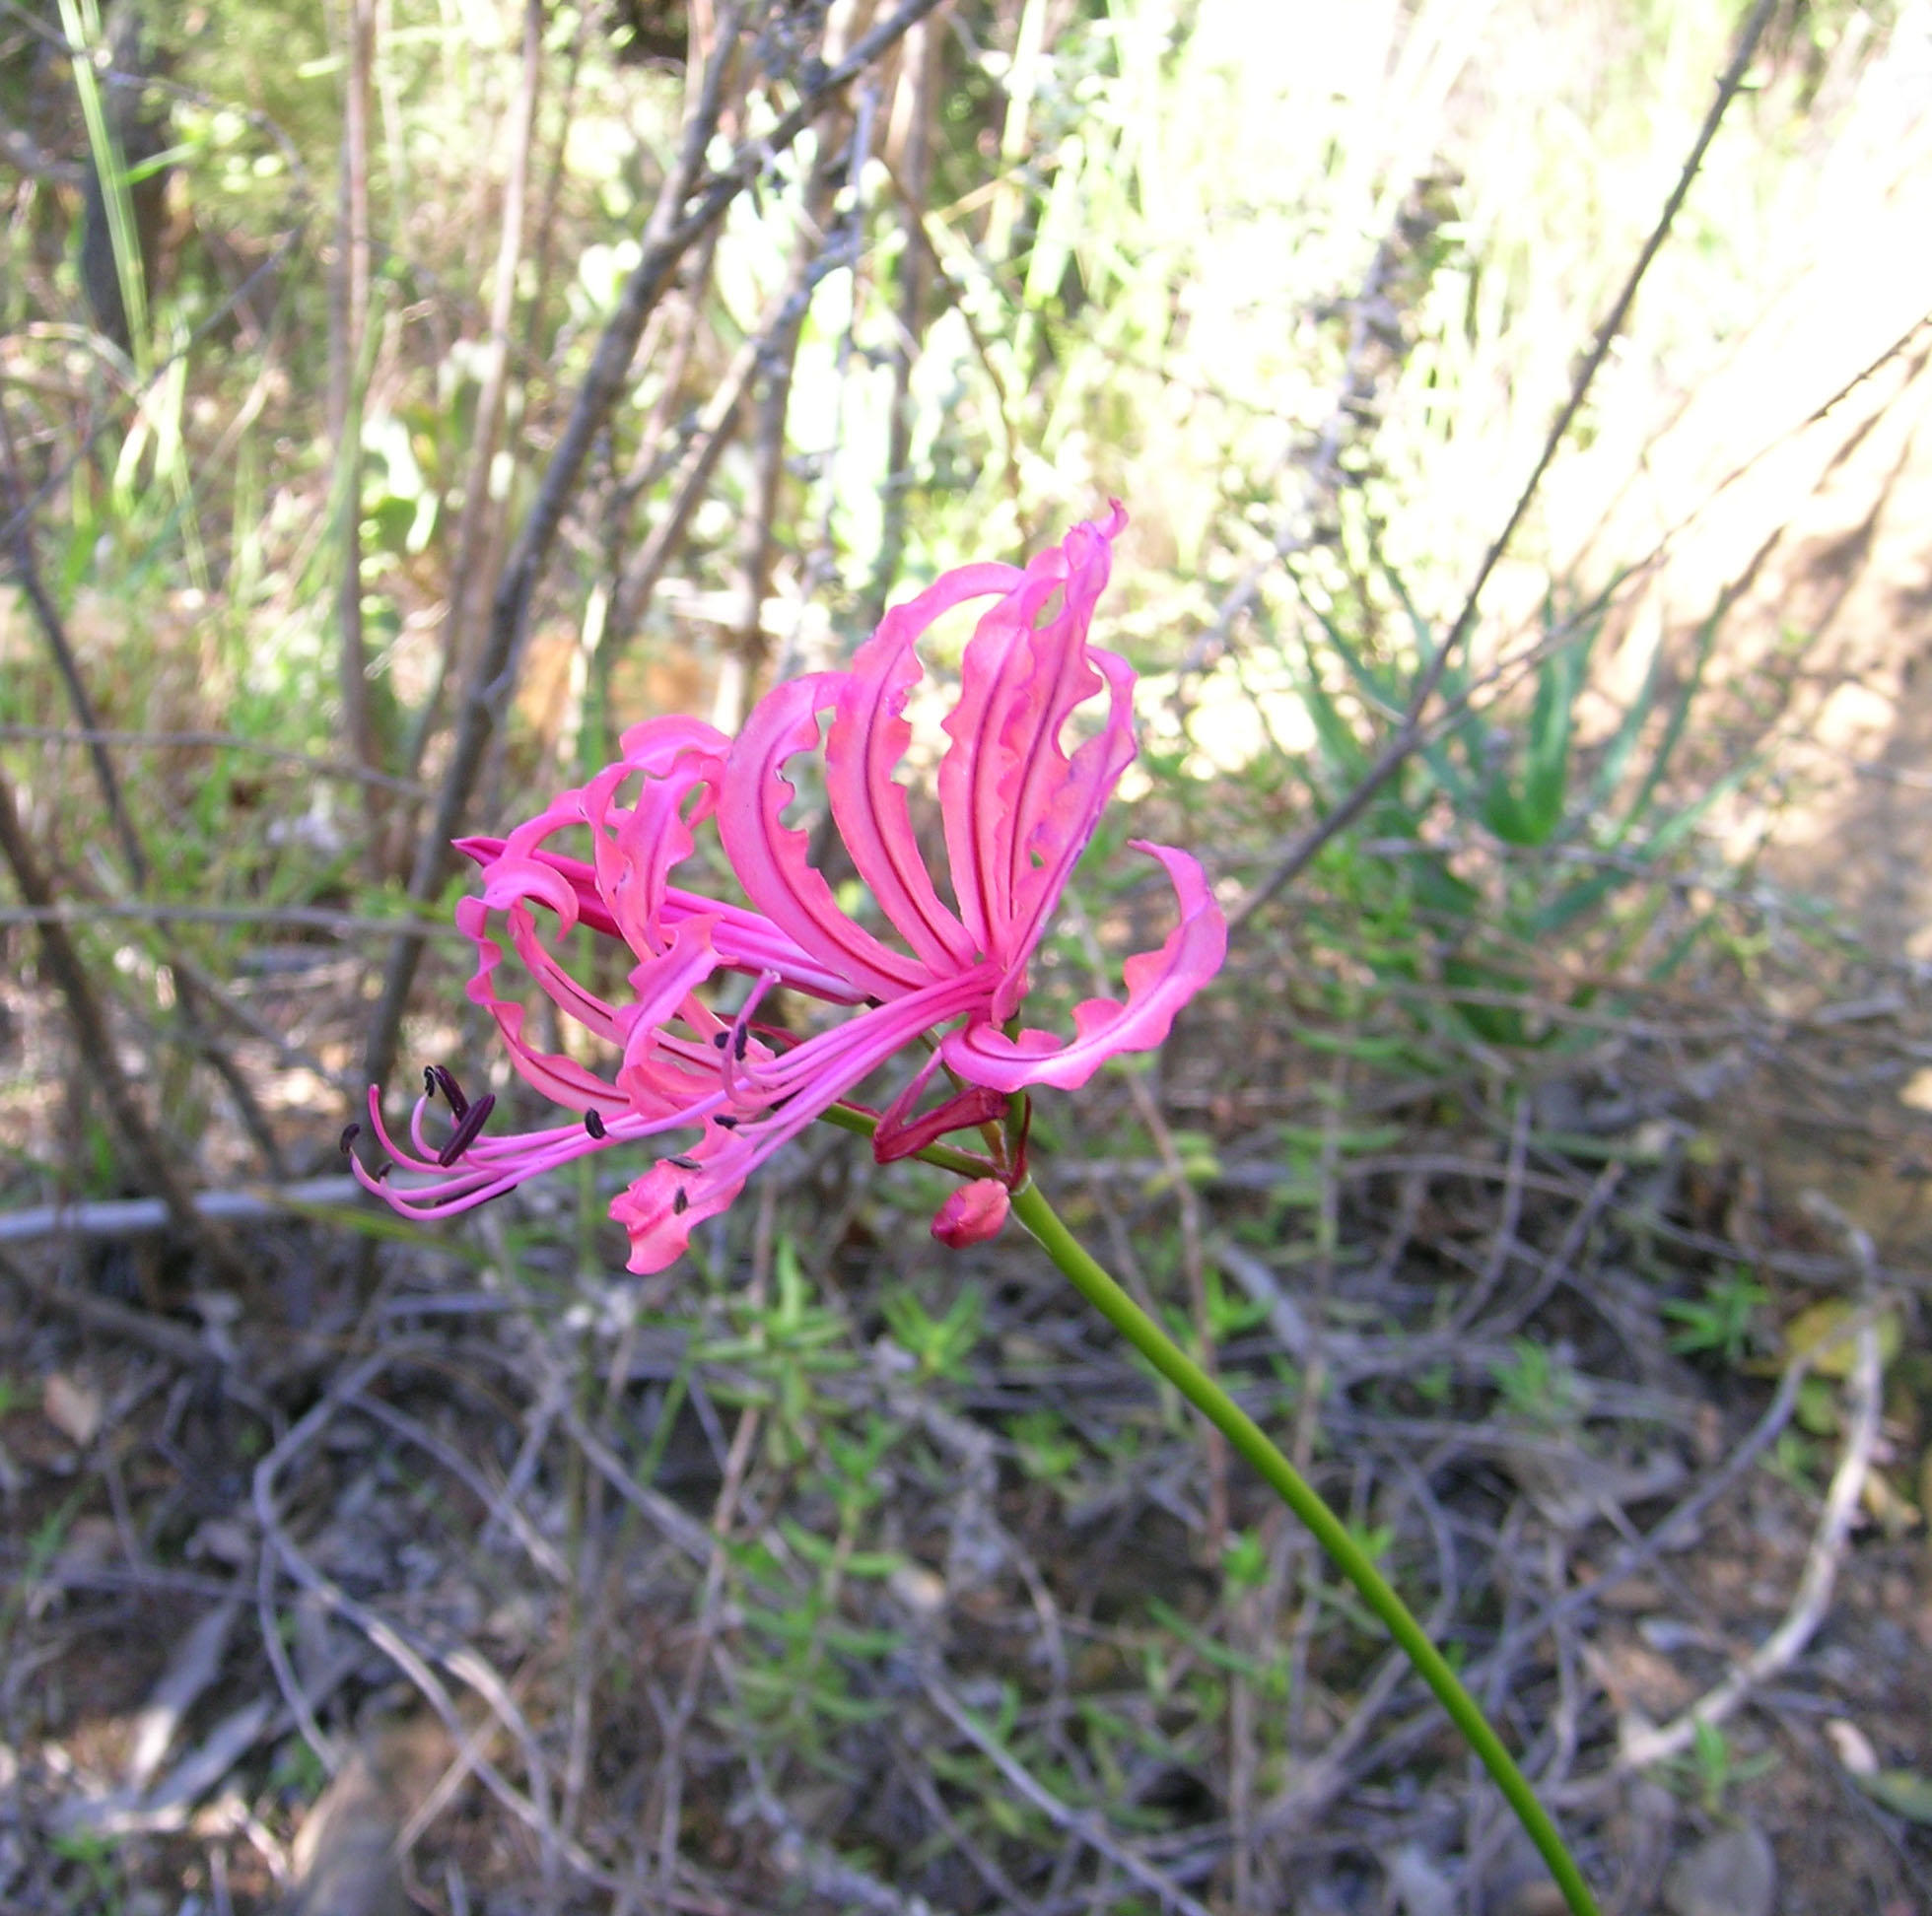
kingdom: Plantae
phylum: Tracheophyta
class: Liliopsida
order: Asparagales
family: Amaryllidaceae
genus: Nerine
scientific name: Nerine humilis
